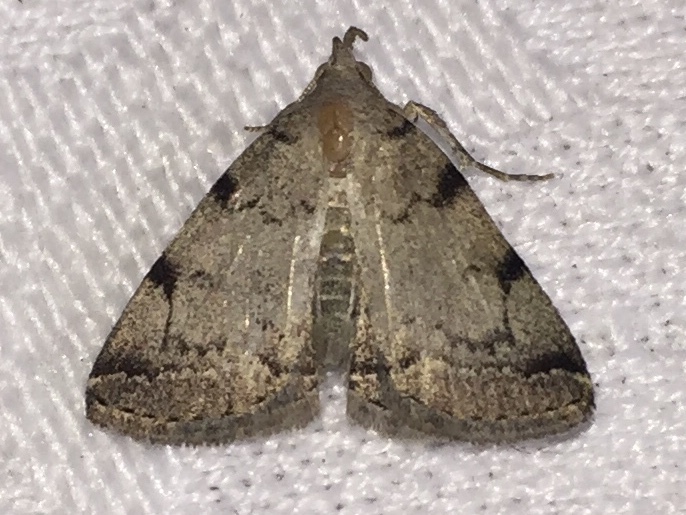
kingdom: Animalia
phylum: Arthropoda
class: Insecta
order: Lepidoptera
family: Erebidae
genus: Zanclognatha
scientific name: Zanclognatha theralis
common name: Flagged fan-foot
